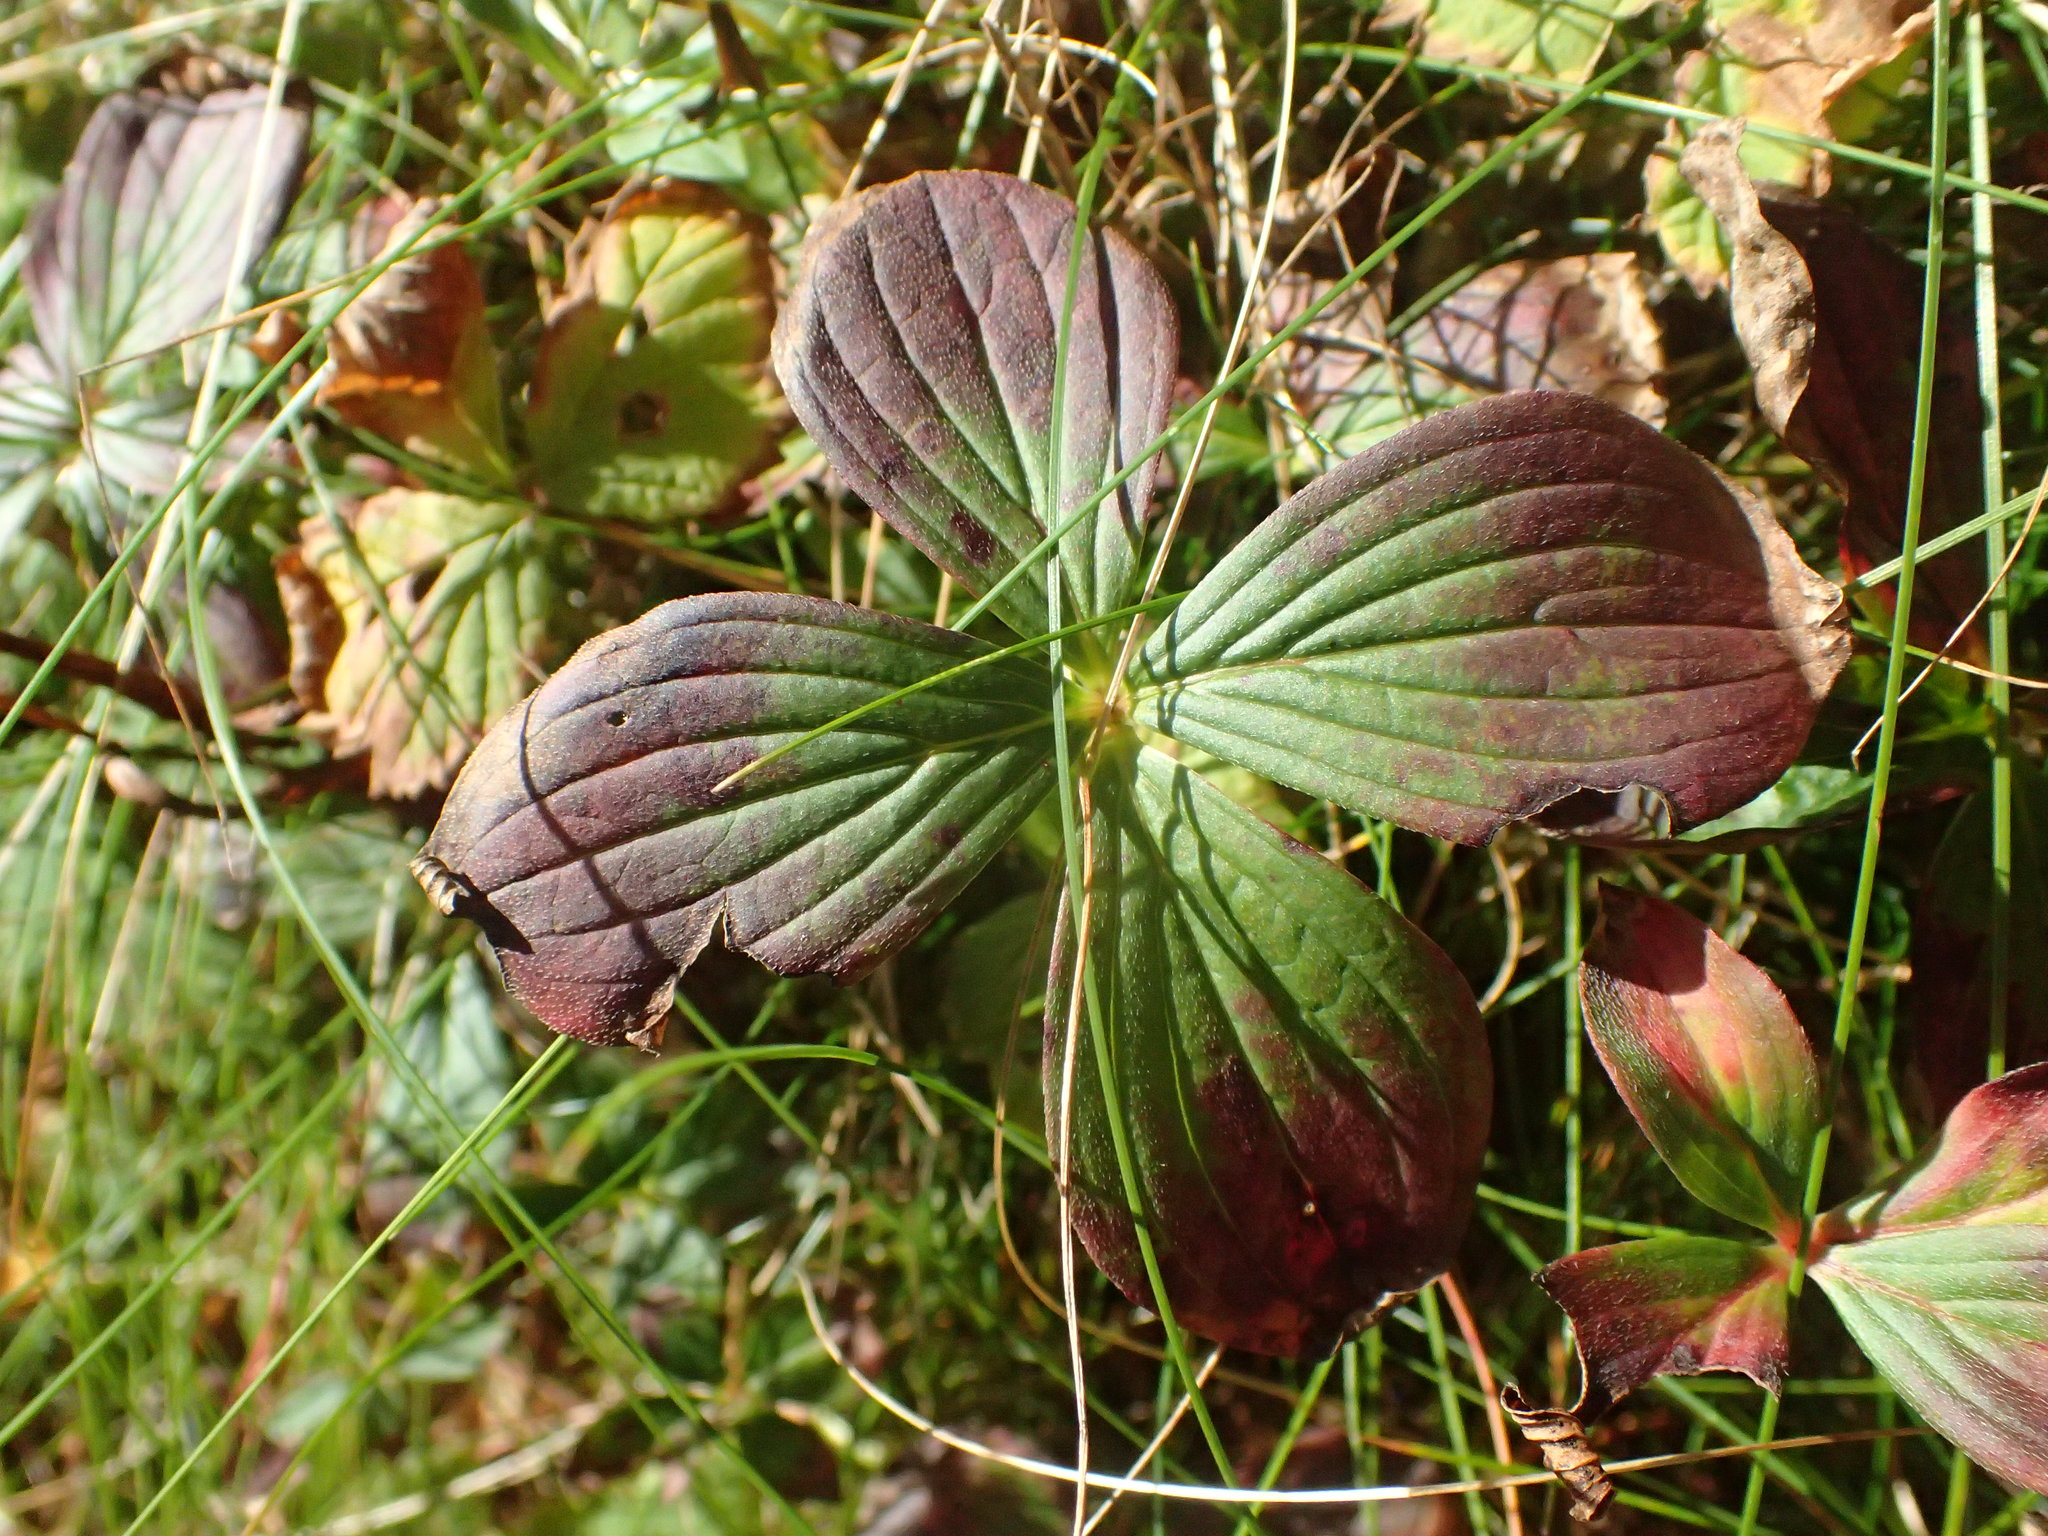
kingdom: Plantae
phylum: Tracheophyta
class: Magnoliopsida
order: Cornales
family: Cornaceae
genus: Cornus
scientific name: Cornus canadensis
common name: Creeping dogwood
